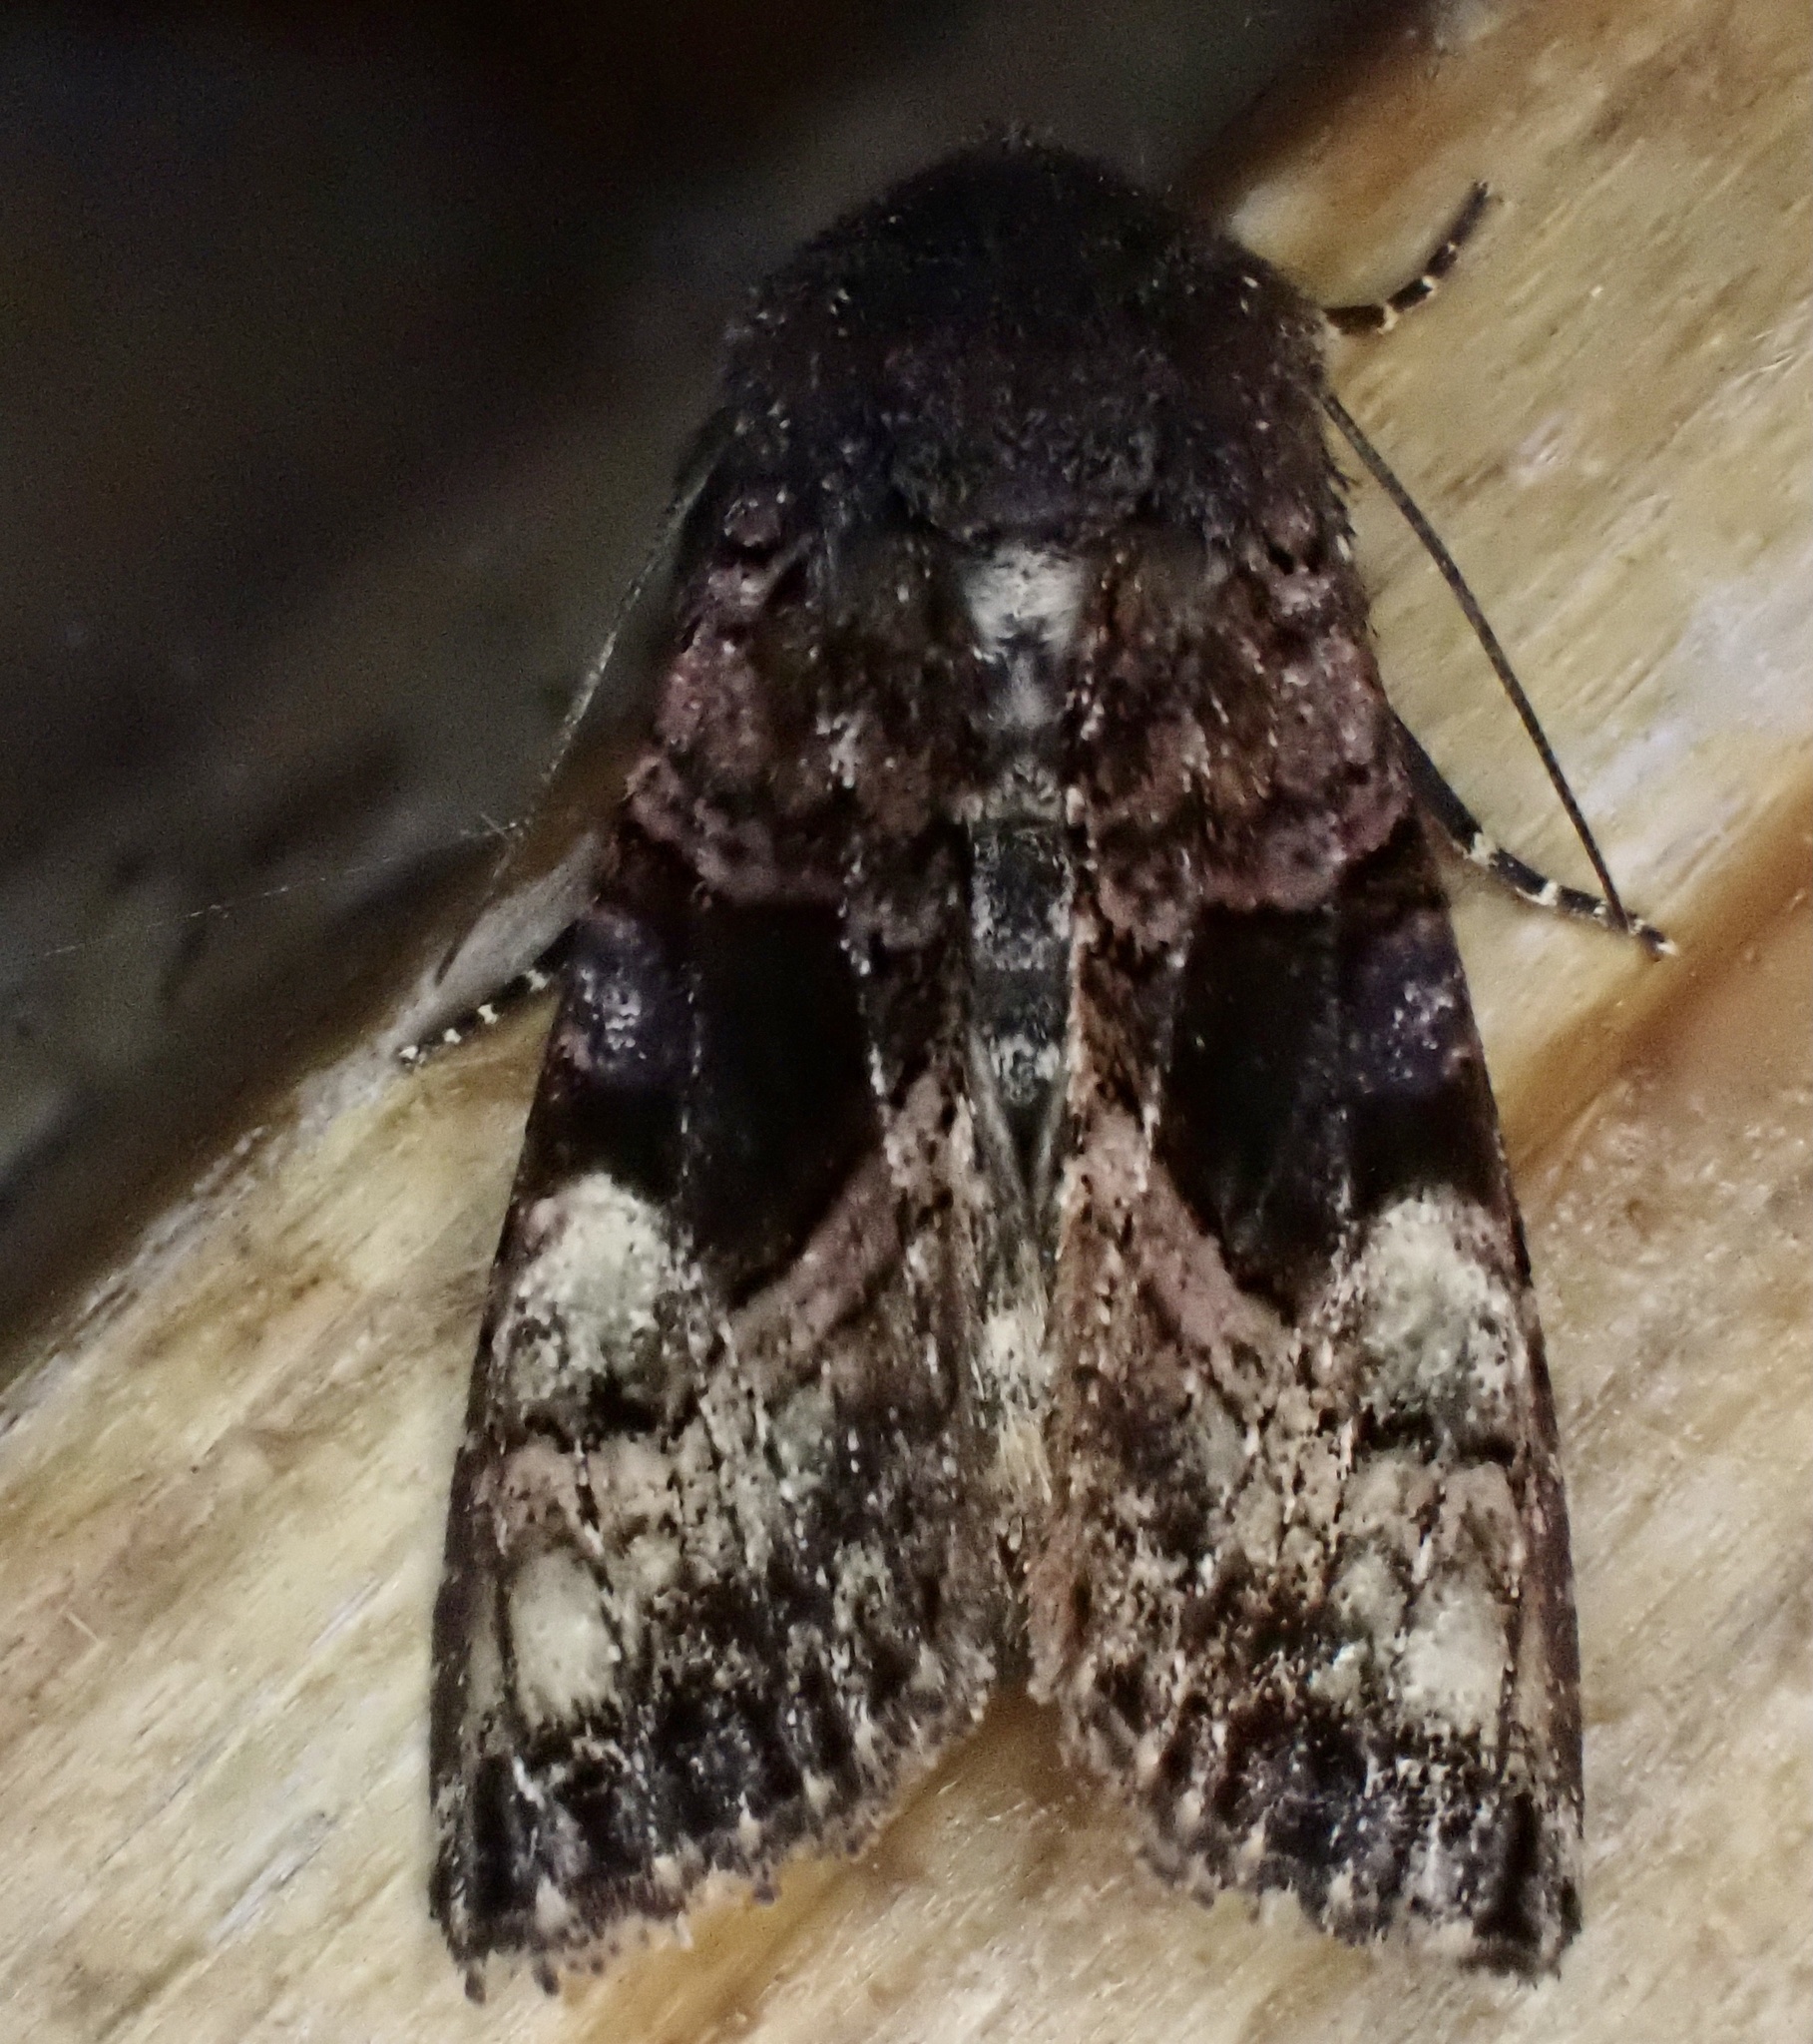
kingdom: Animalia
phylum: Arthropoda
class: Insecta
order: Lepidoptera
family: Noctuidae
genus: Euplexia
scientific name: Euplexia benesimilis
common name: American angle shades
